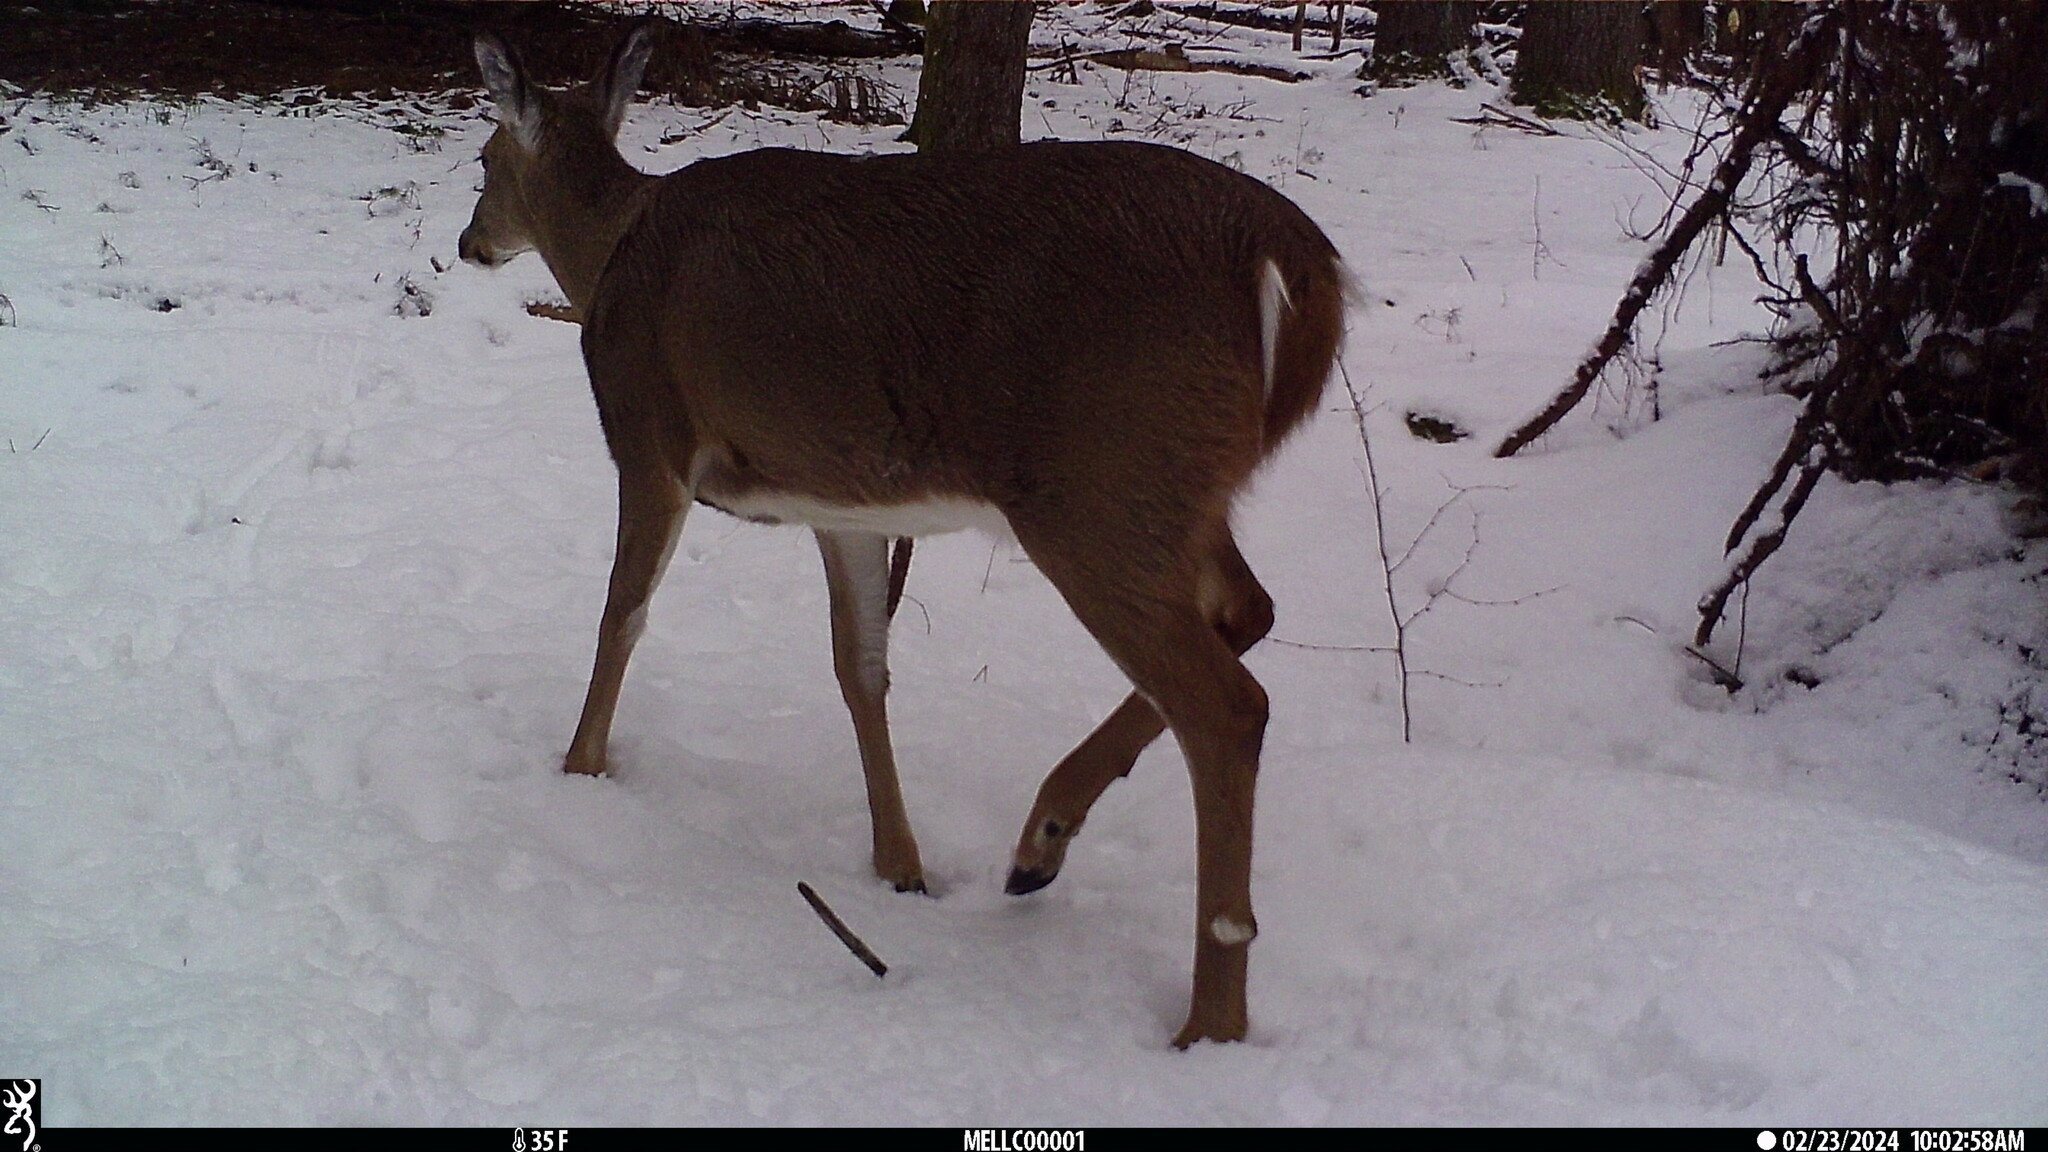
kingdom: Animalia
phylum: Chordata
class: Mammalia
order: Artiodactyla
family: Cervidae
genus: Odocoileus
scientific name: Odocoileus virginianus
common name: White-tailed deer
